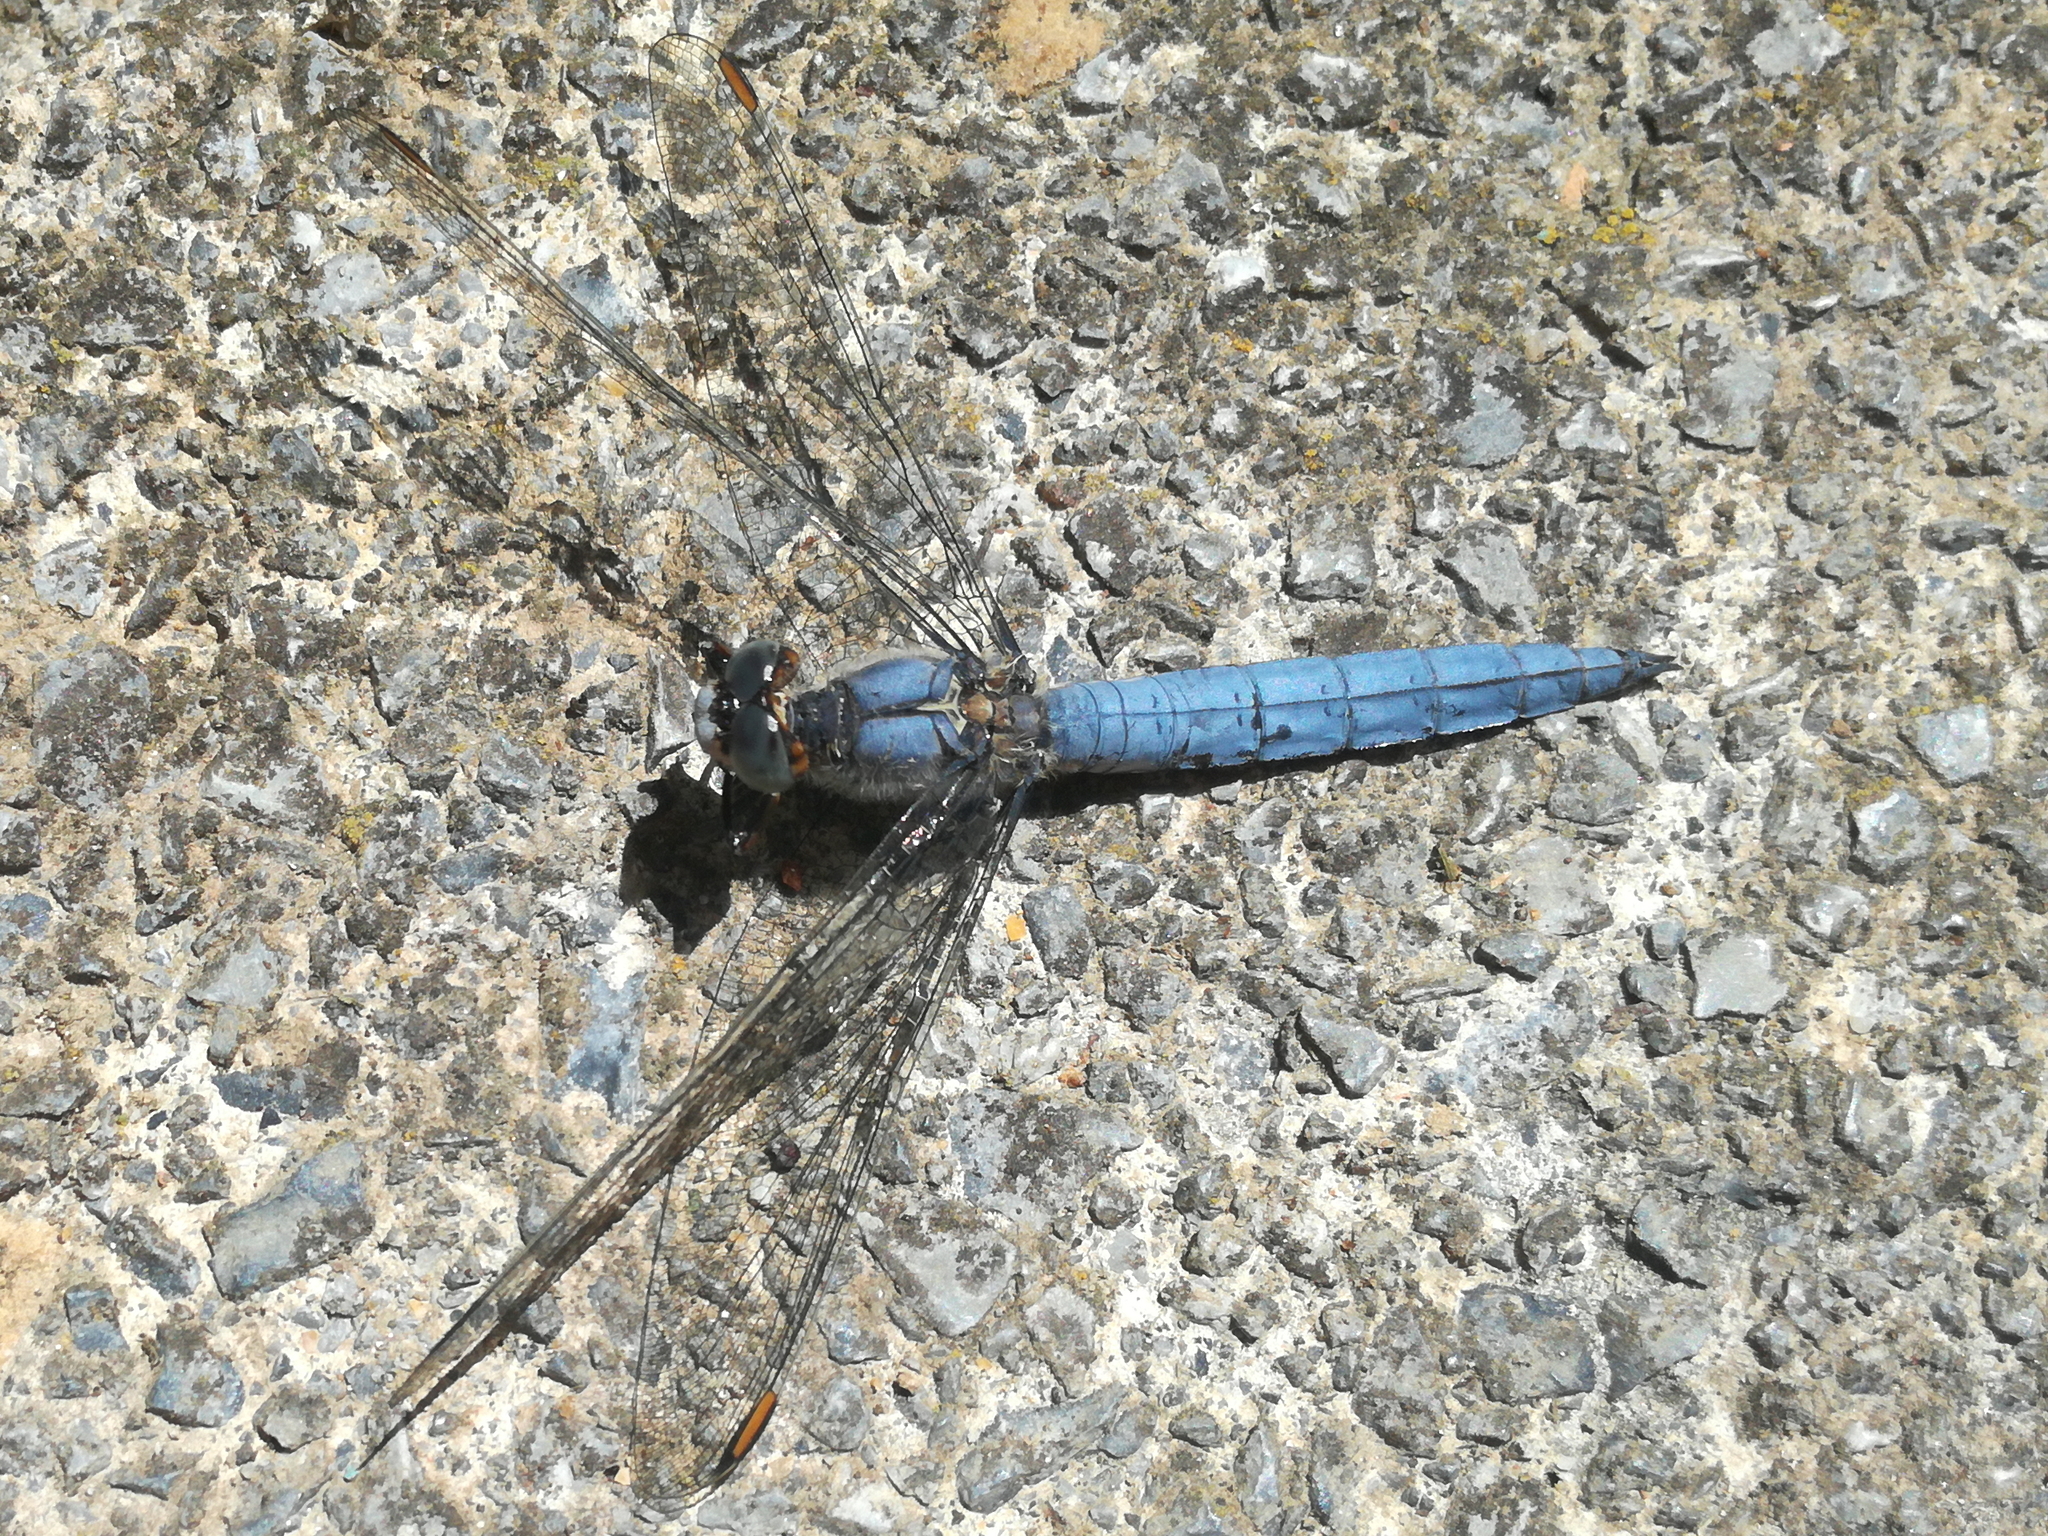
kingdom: Animalia
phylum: Arthropoda
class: Insecta
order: Odonata
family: Libellulidae
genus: Orthetrum
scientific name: Orthetrum brunneum
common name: Southern skimmer
